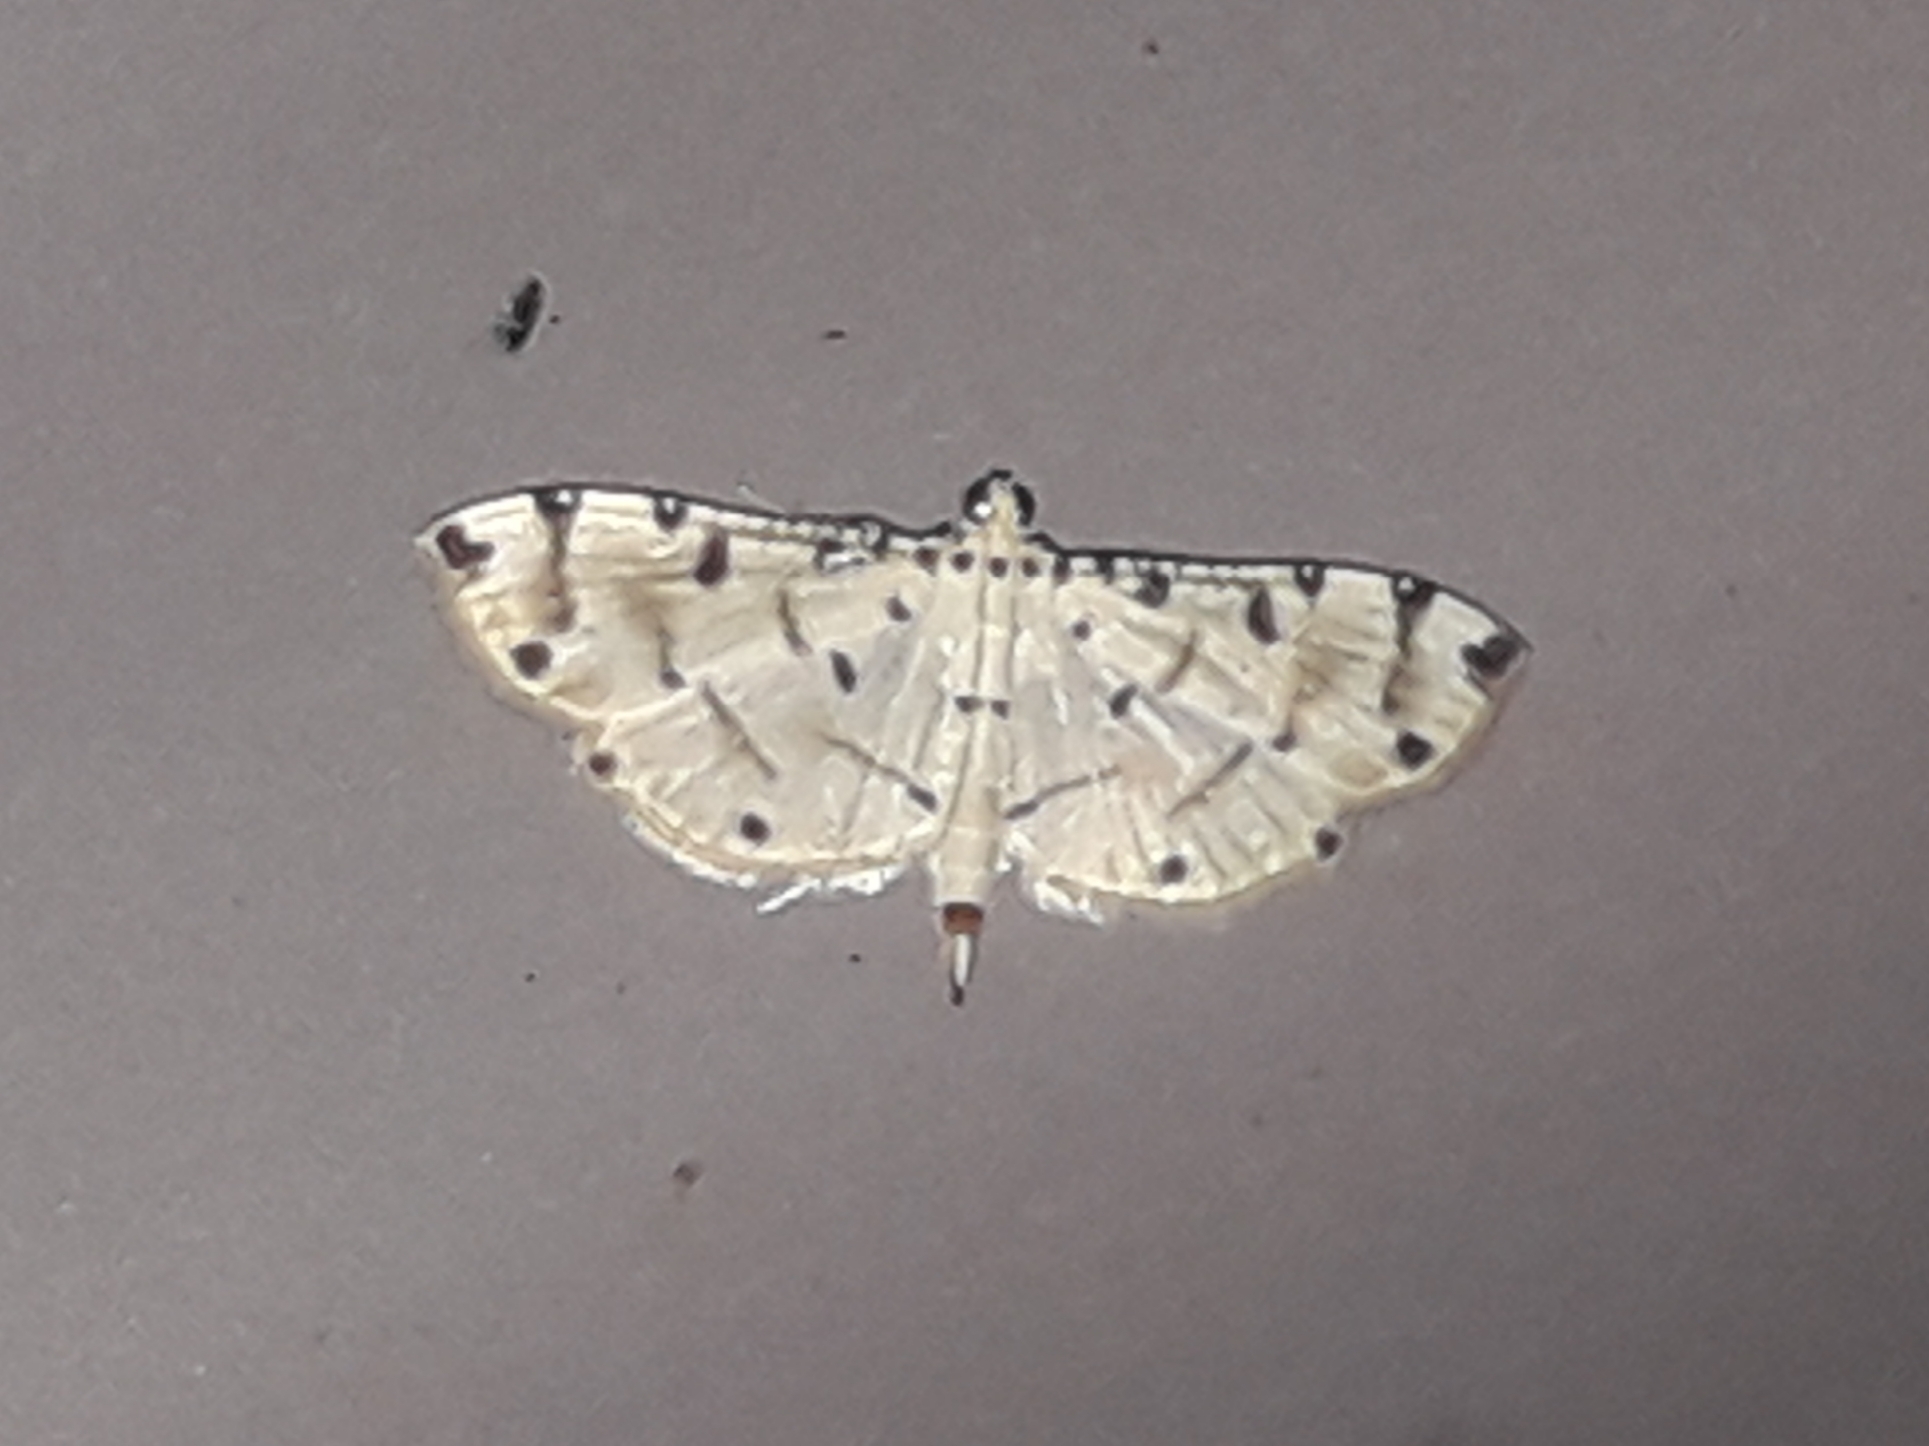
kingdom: Animalia
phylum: Arthropoda
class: Insecta
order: Lepidoptera
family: Crambidae
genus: Pycnarmon
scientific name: Pycnarmon cribrata
